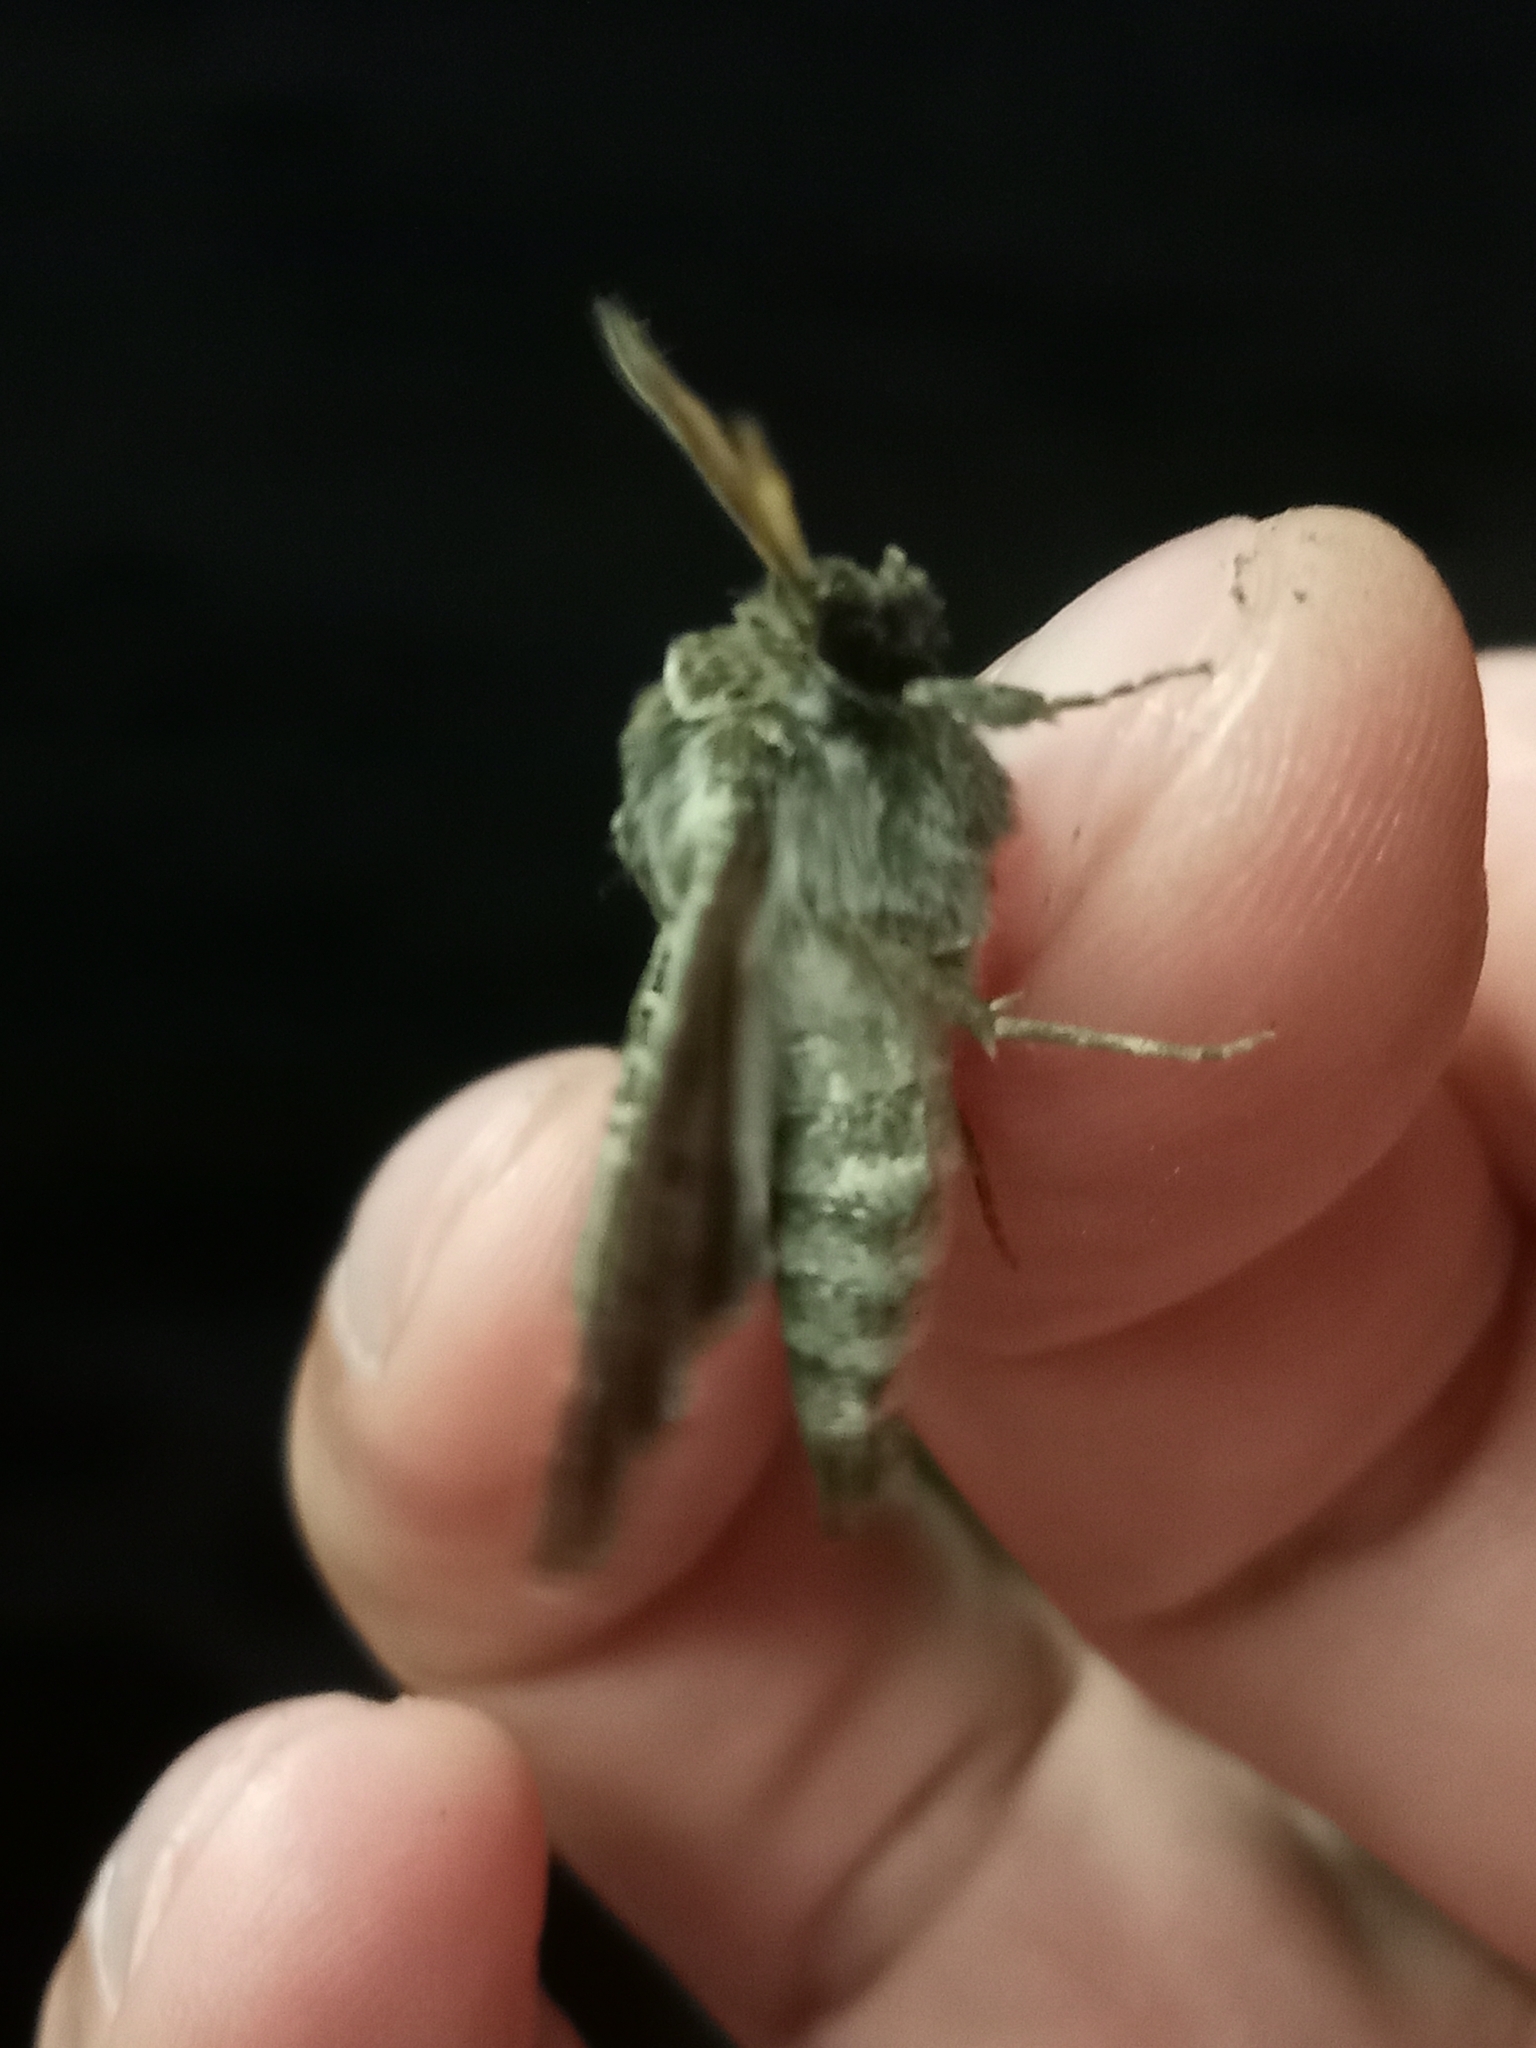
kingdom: Animalia
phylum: Arthropoda
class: Insecta
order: Lepidoptera
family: Noctuidae
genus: Tholera
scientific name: Tholera decimalis
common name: Feathered gothic
